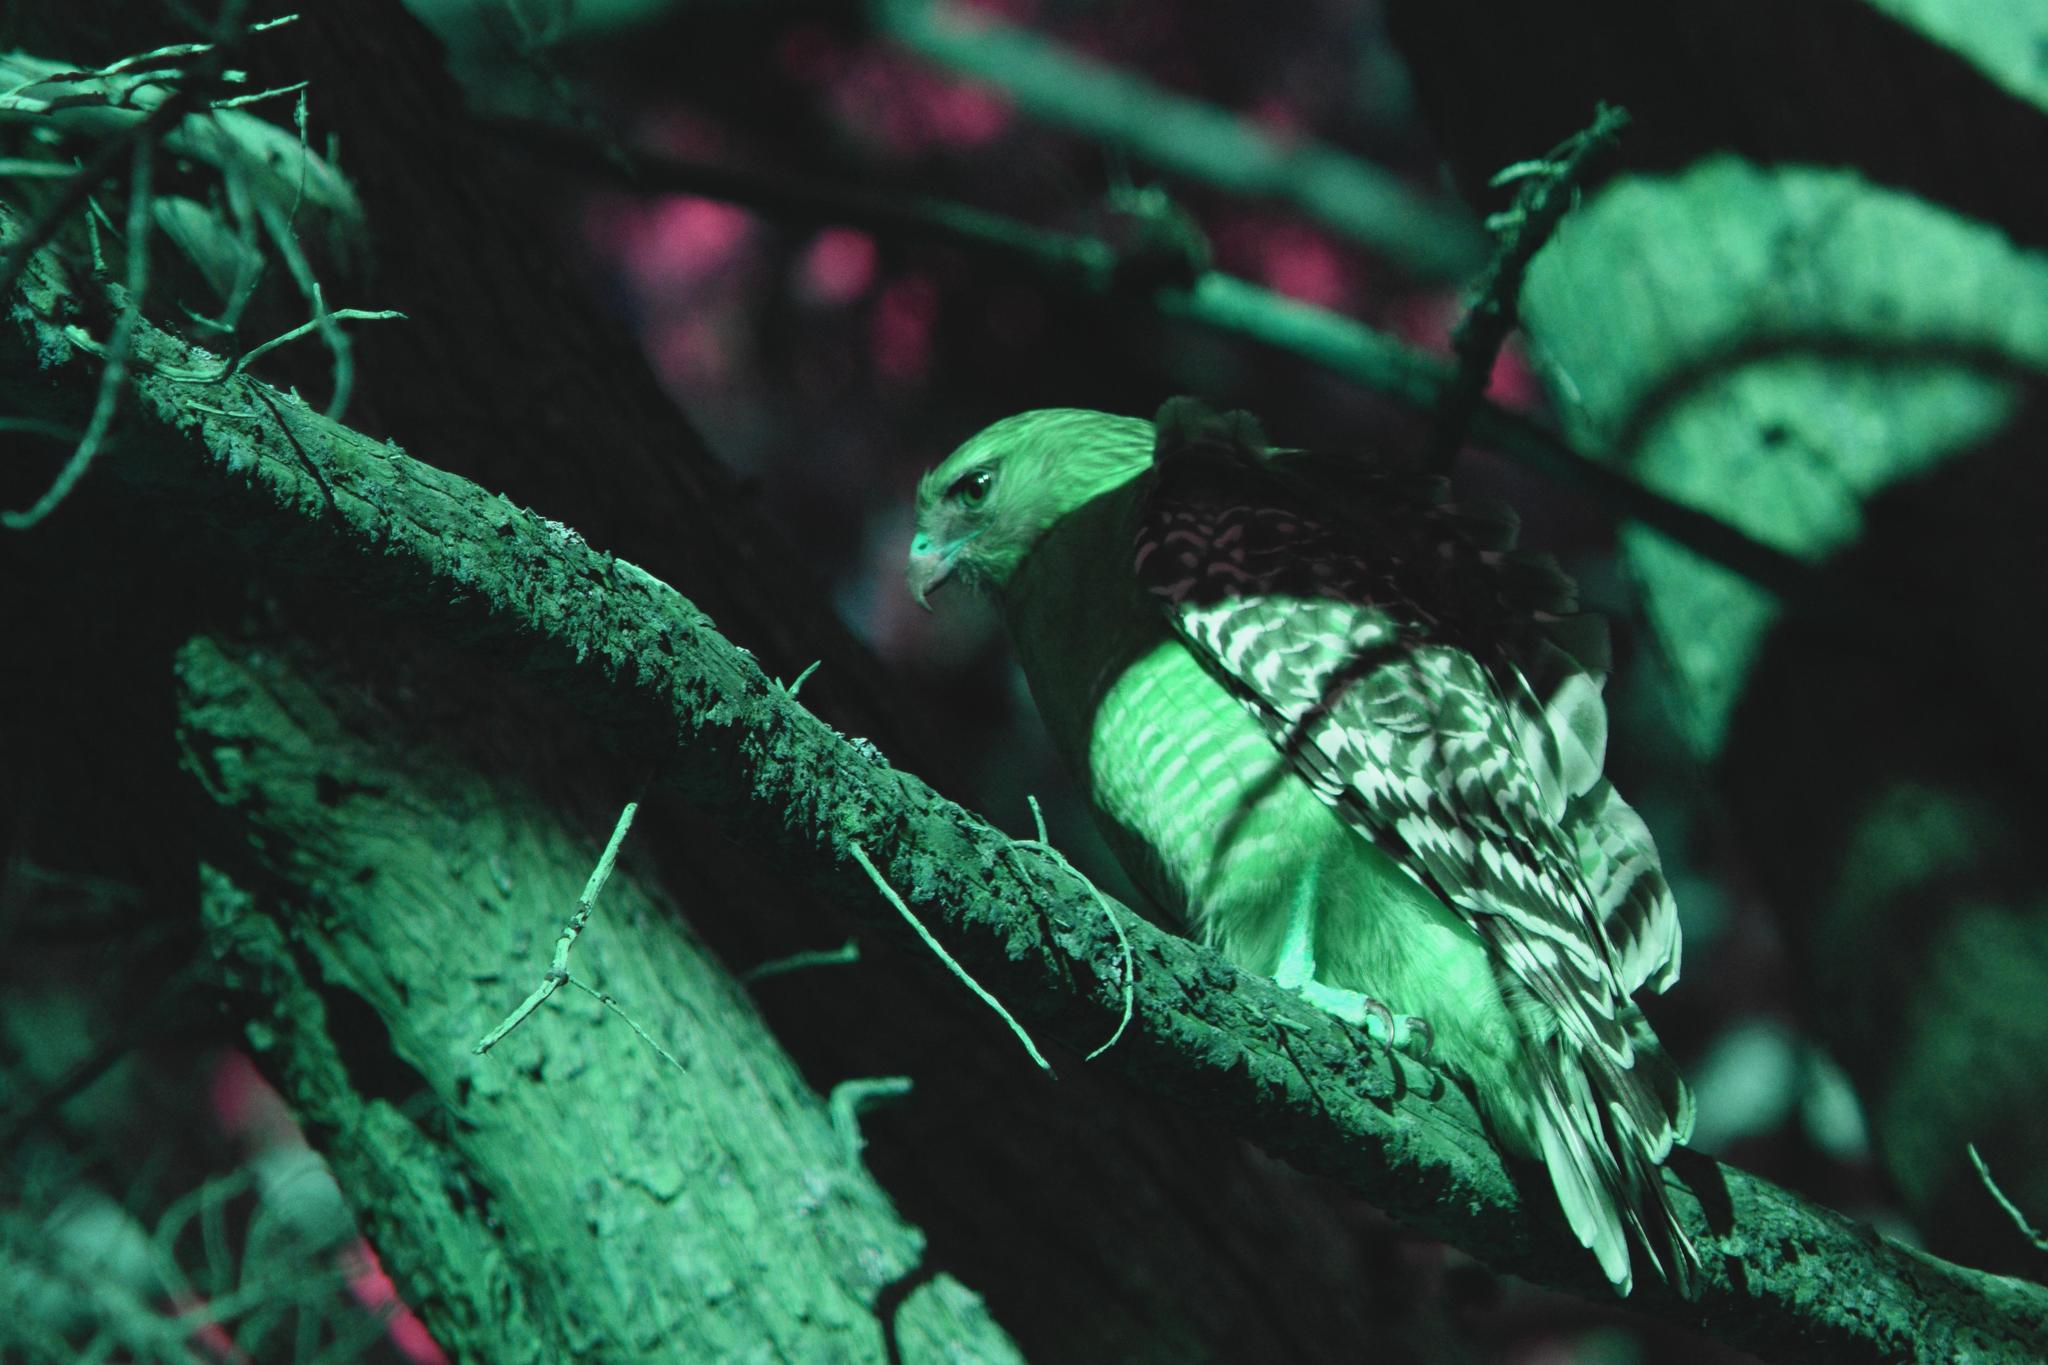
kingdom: Animalia
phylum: Chordata
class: Aves
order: Accipitriformes
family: Accipitridae
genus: Buteo
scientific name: Buteo lineatus
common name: Red-shouldered hawk
